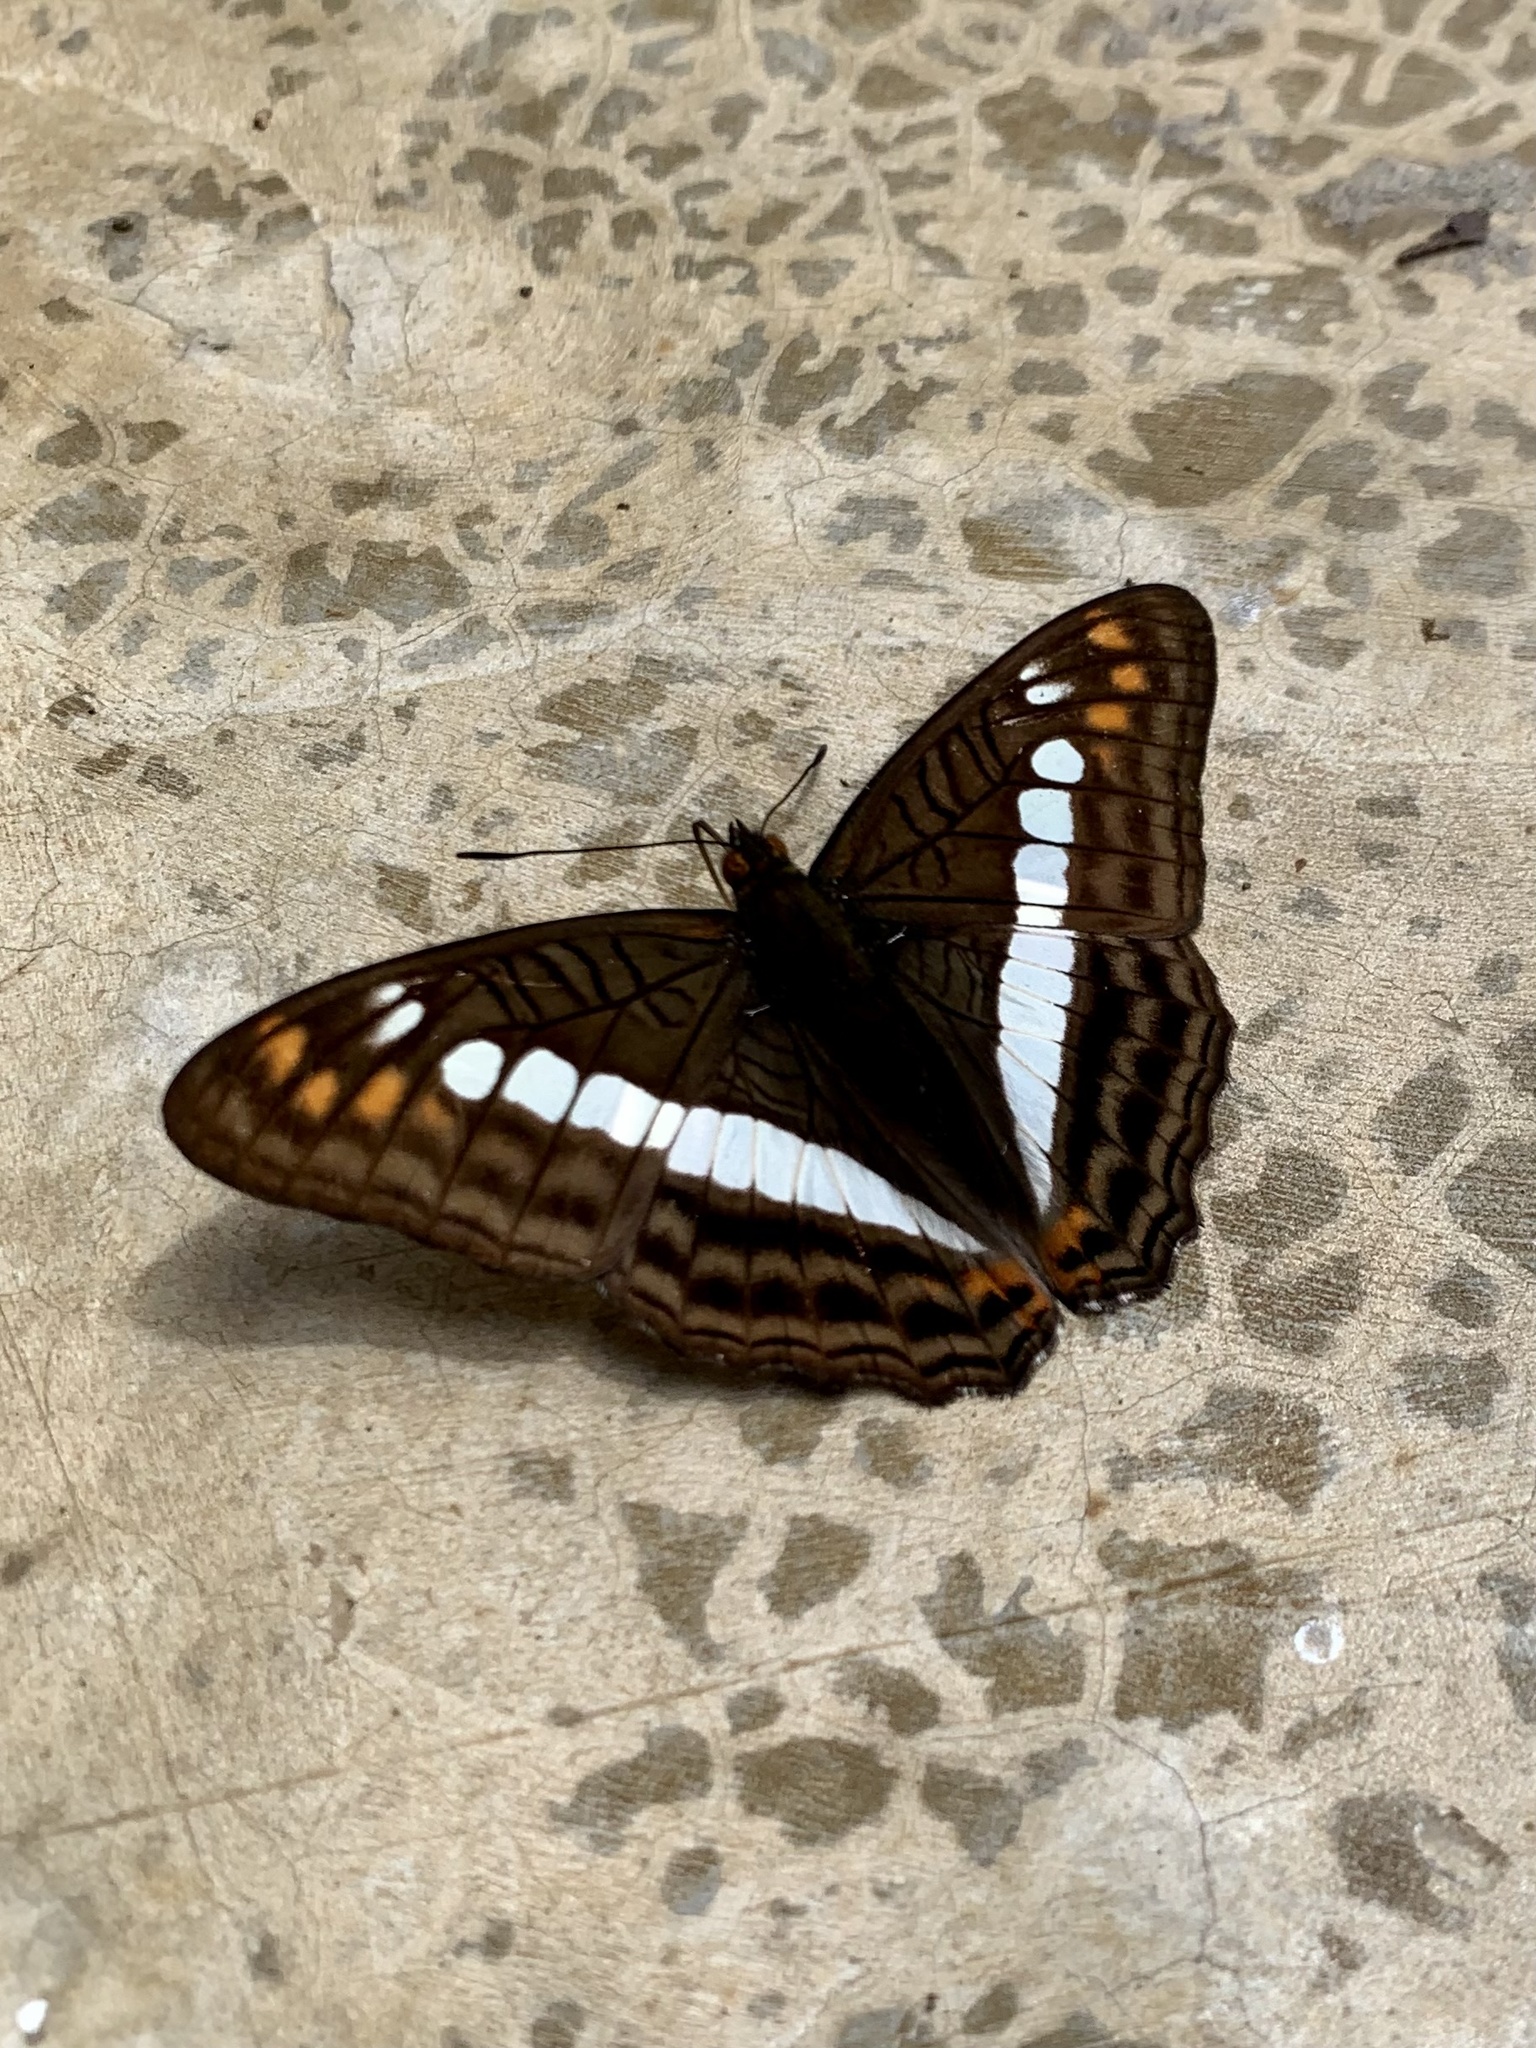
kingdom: Animalia
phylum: Arthropoda
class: Insecta
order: Lepidoptera
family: Nymphalidae
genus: Limenitis
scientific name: Limenitis alala
